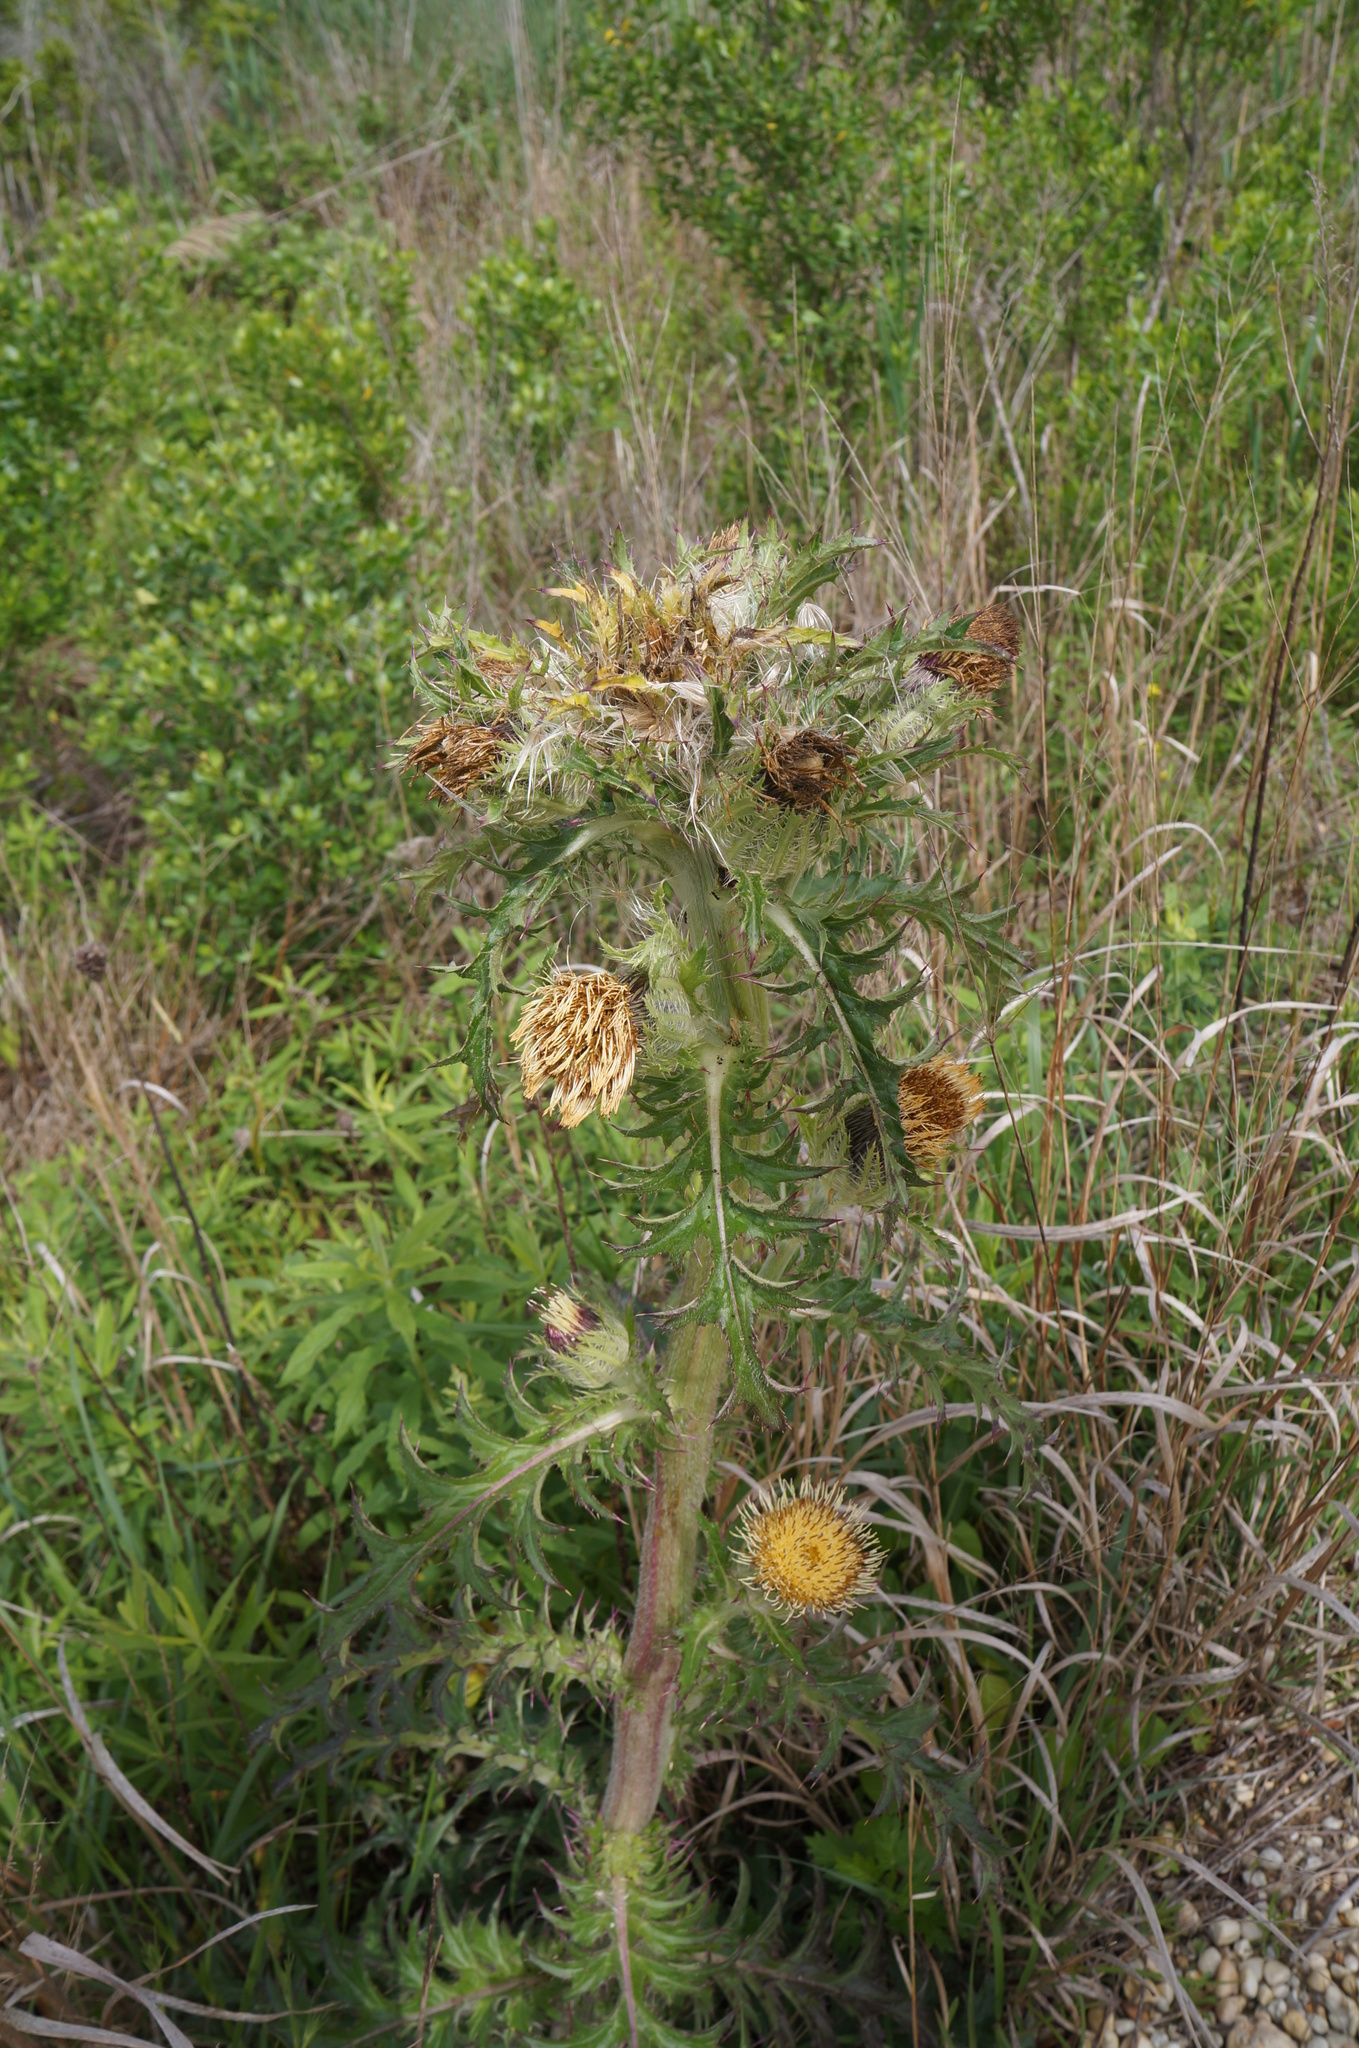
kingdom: Plantae
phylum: Tracheophyta
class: Magnoliopsida
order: Asterales
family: Asteraceae
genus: Cirsium
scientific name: Cirsium horridulum
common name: Bristly thistle
